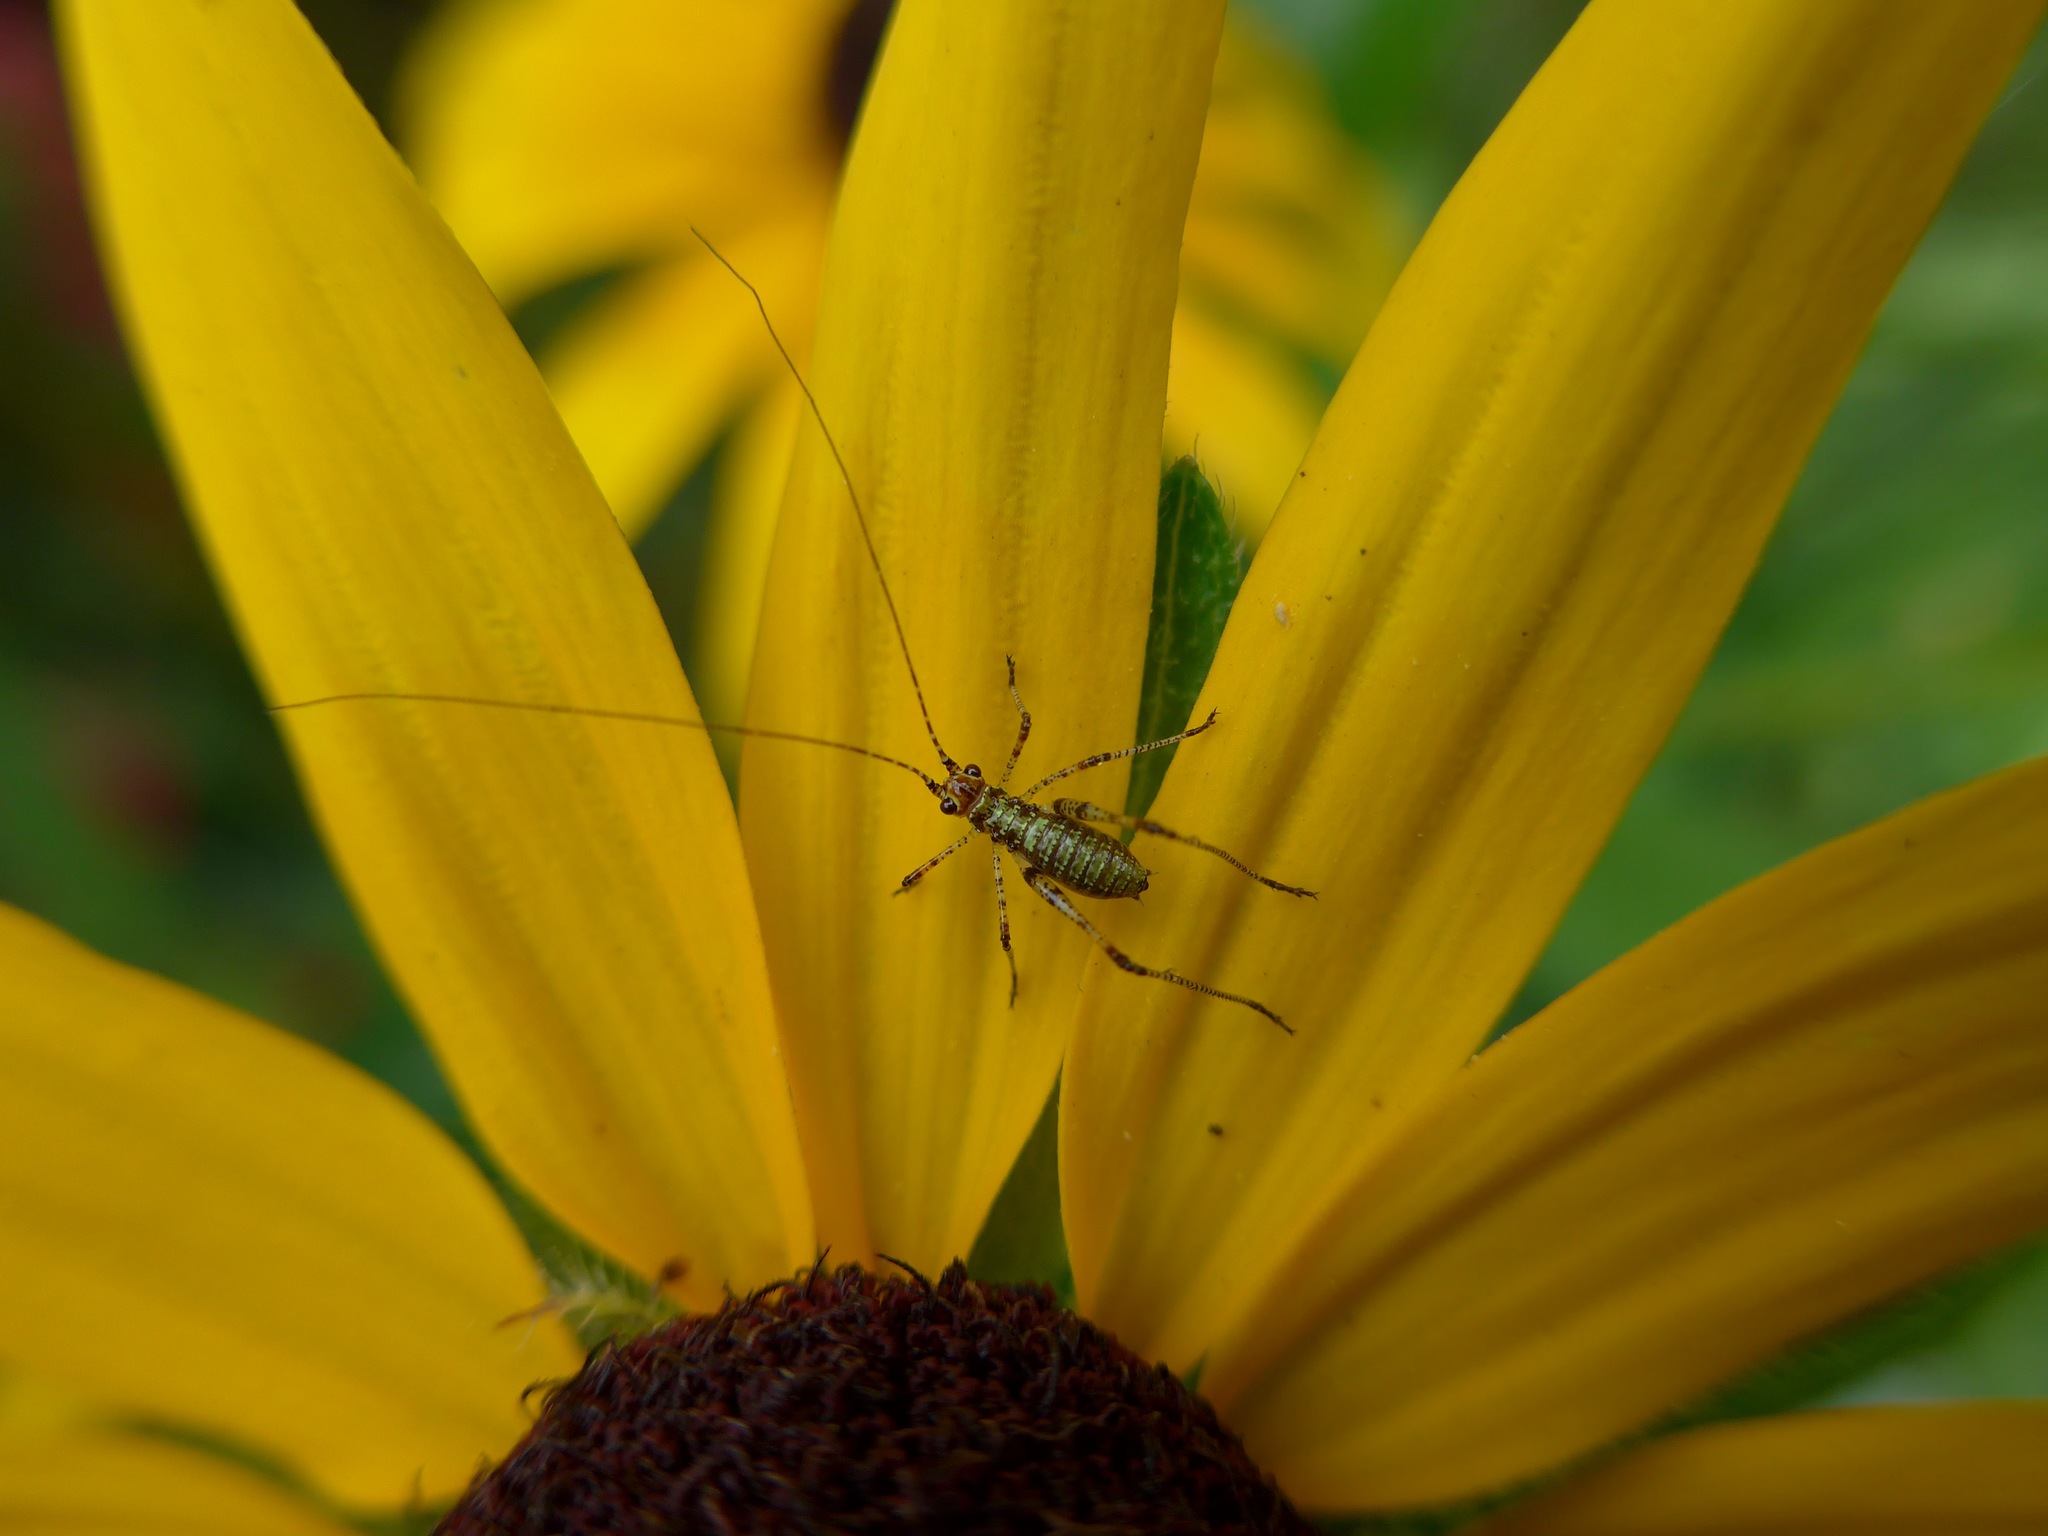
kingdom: Animalia
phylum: Arthropoda
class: Insecta
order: Orthoptera
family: Tettigoniidae
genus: Phaneroptera
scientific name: Phaneroptera nana
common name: Southern sickle bush-cricket
